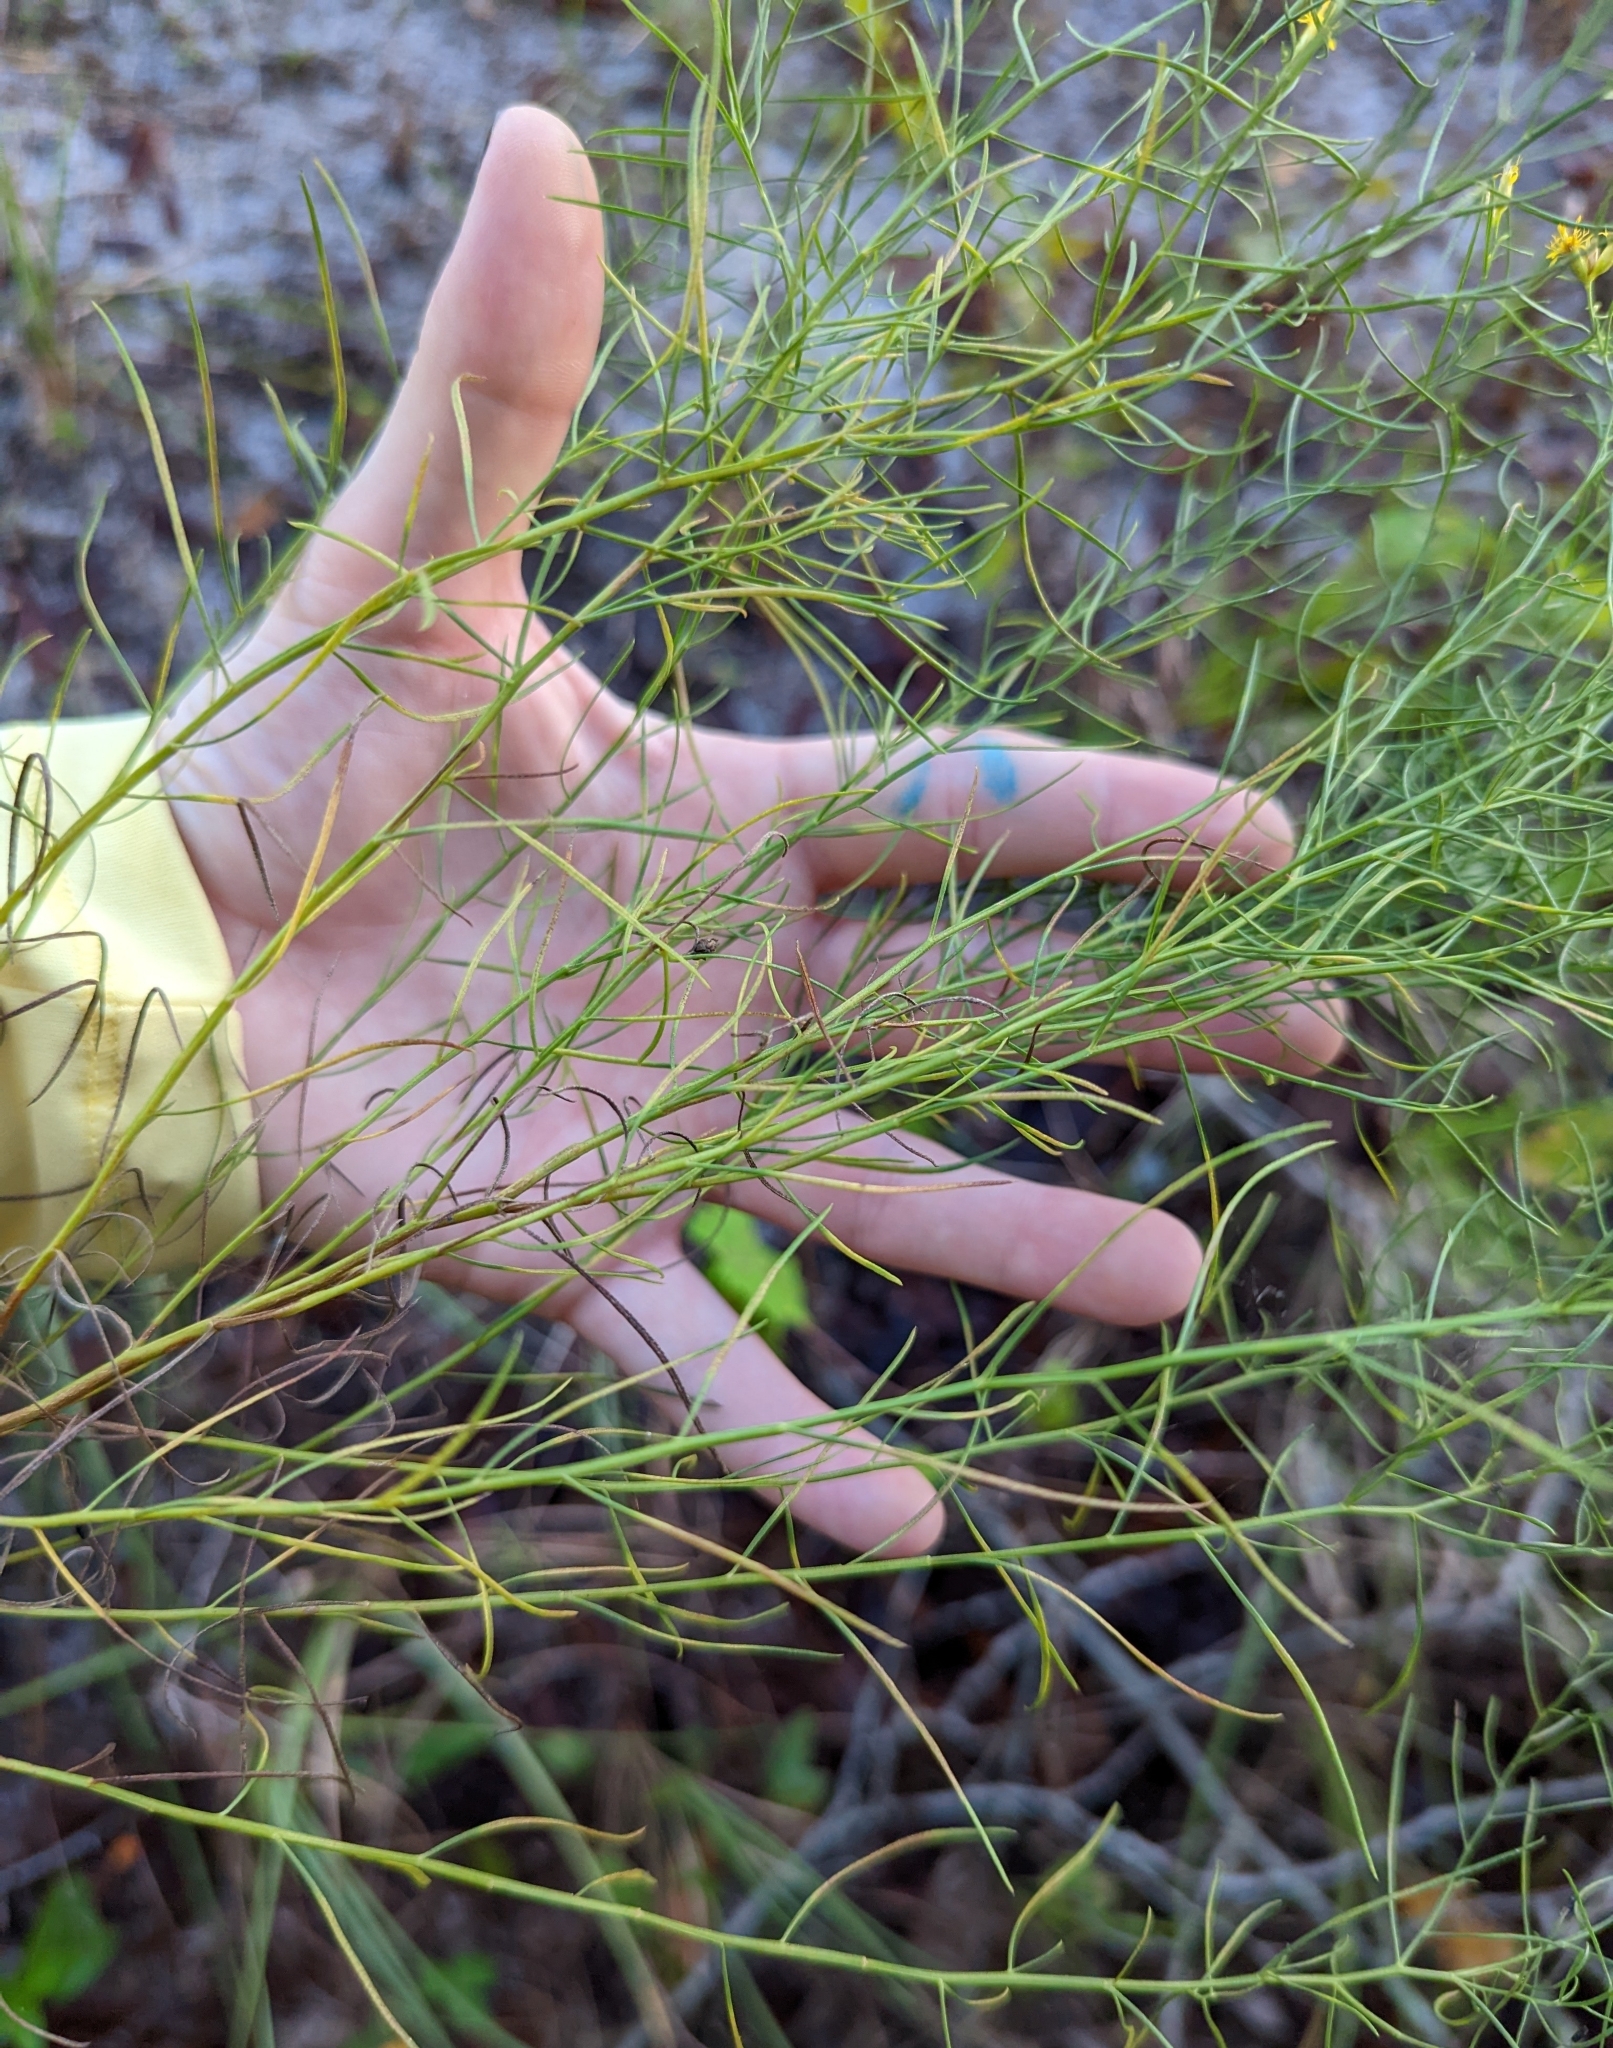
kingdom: Plantae
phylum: Tracheophyta
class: Magnoliopsida
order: Asterales
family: Asteraceae
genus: Euthamia
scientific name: Euthamia caroliniana
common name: Coastal plain goldentop
